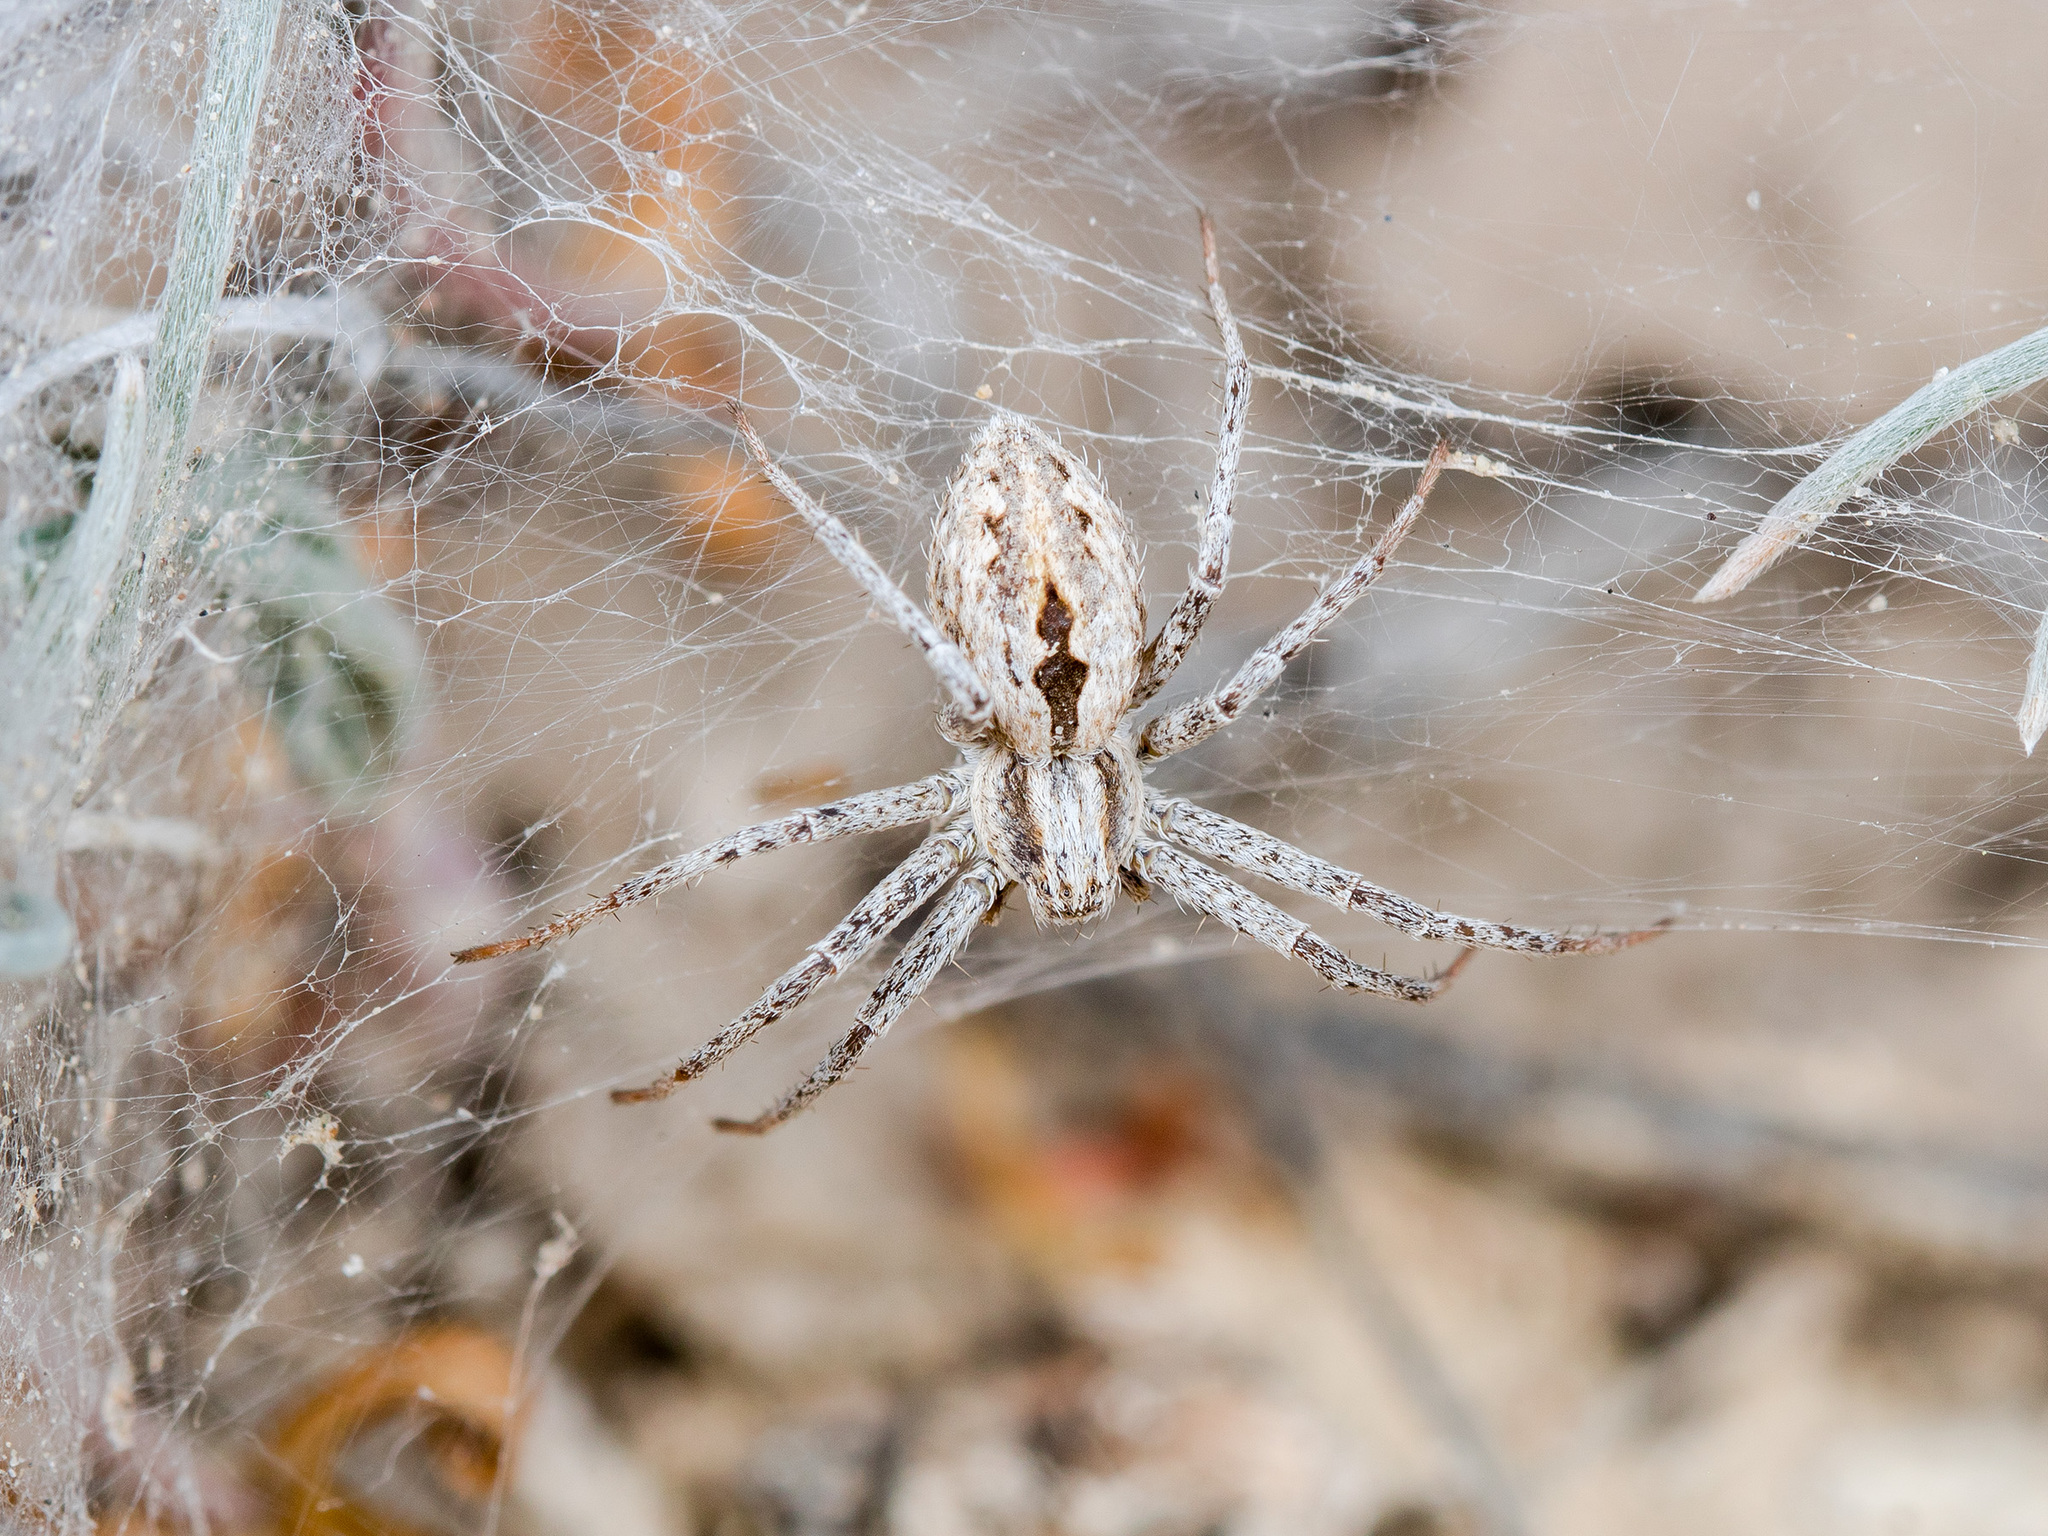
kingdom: Animalia
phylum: Arthropoda
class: Arachnida
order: Araneae
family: Philodromidae
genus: Thanatus
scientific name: Thanatus fabricii
